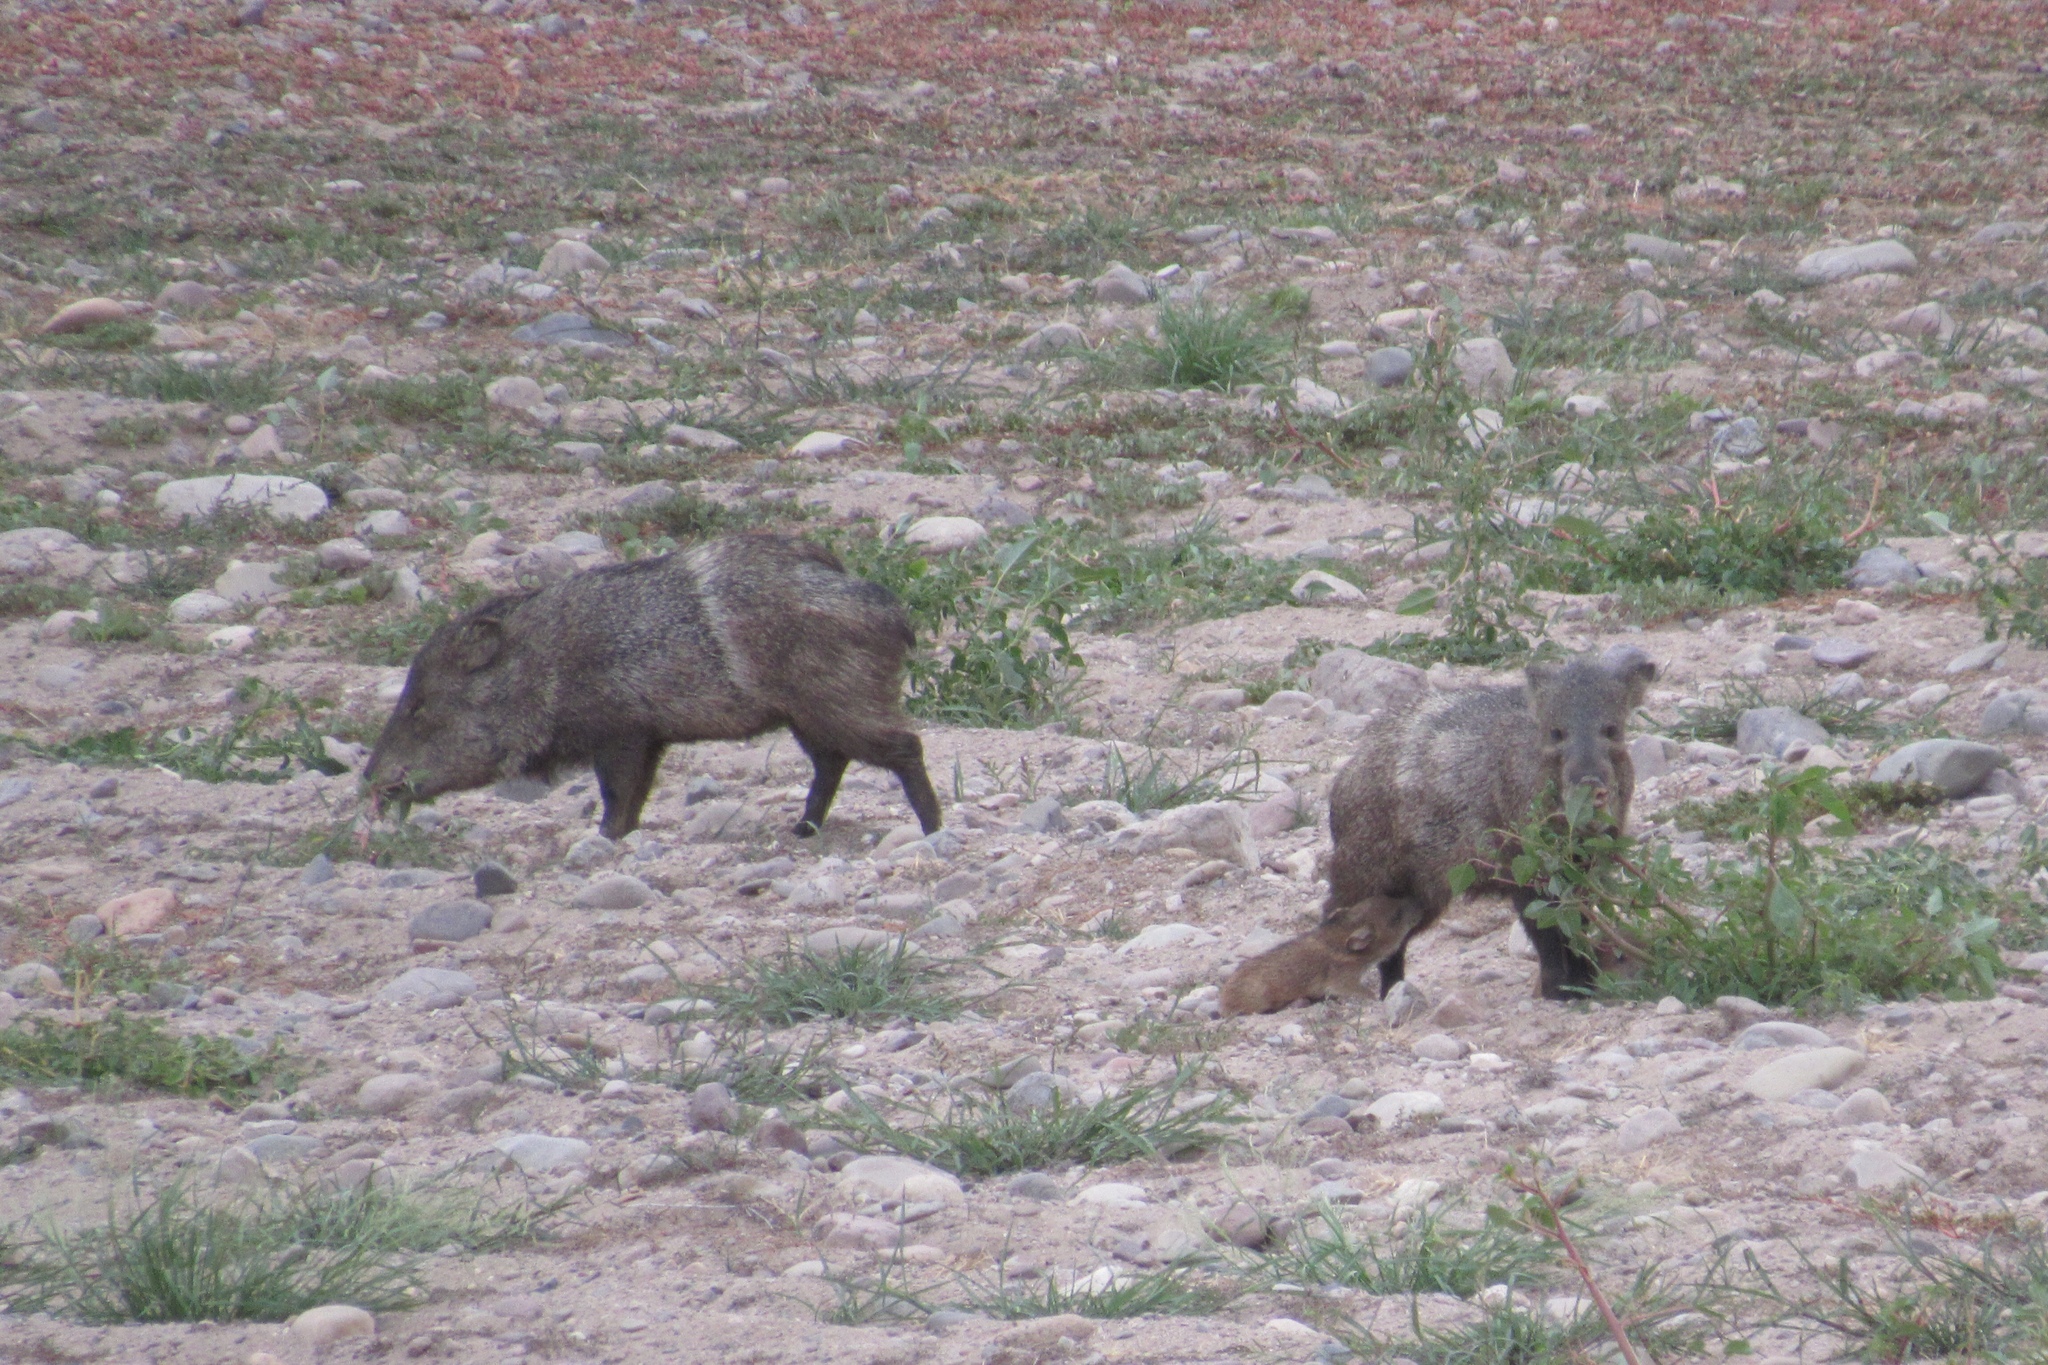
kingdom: Animalia
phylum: Chordata
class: Mammalia
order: Artiodactyla
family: Tayassuidae
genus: Pecari
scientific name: Pecari tajacu
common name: Collared peccary
